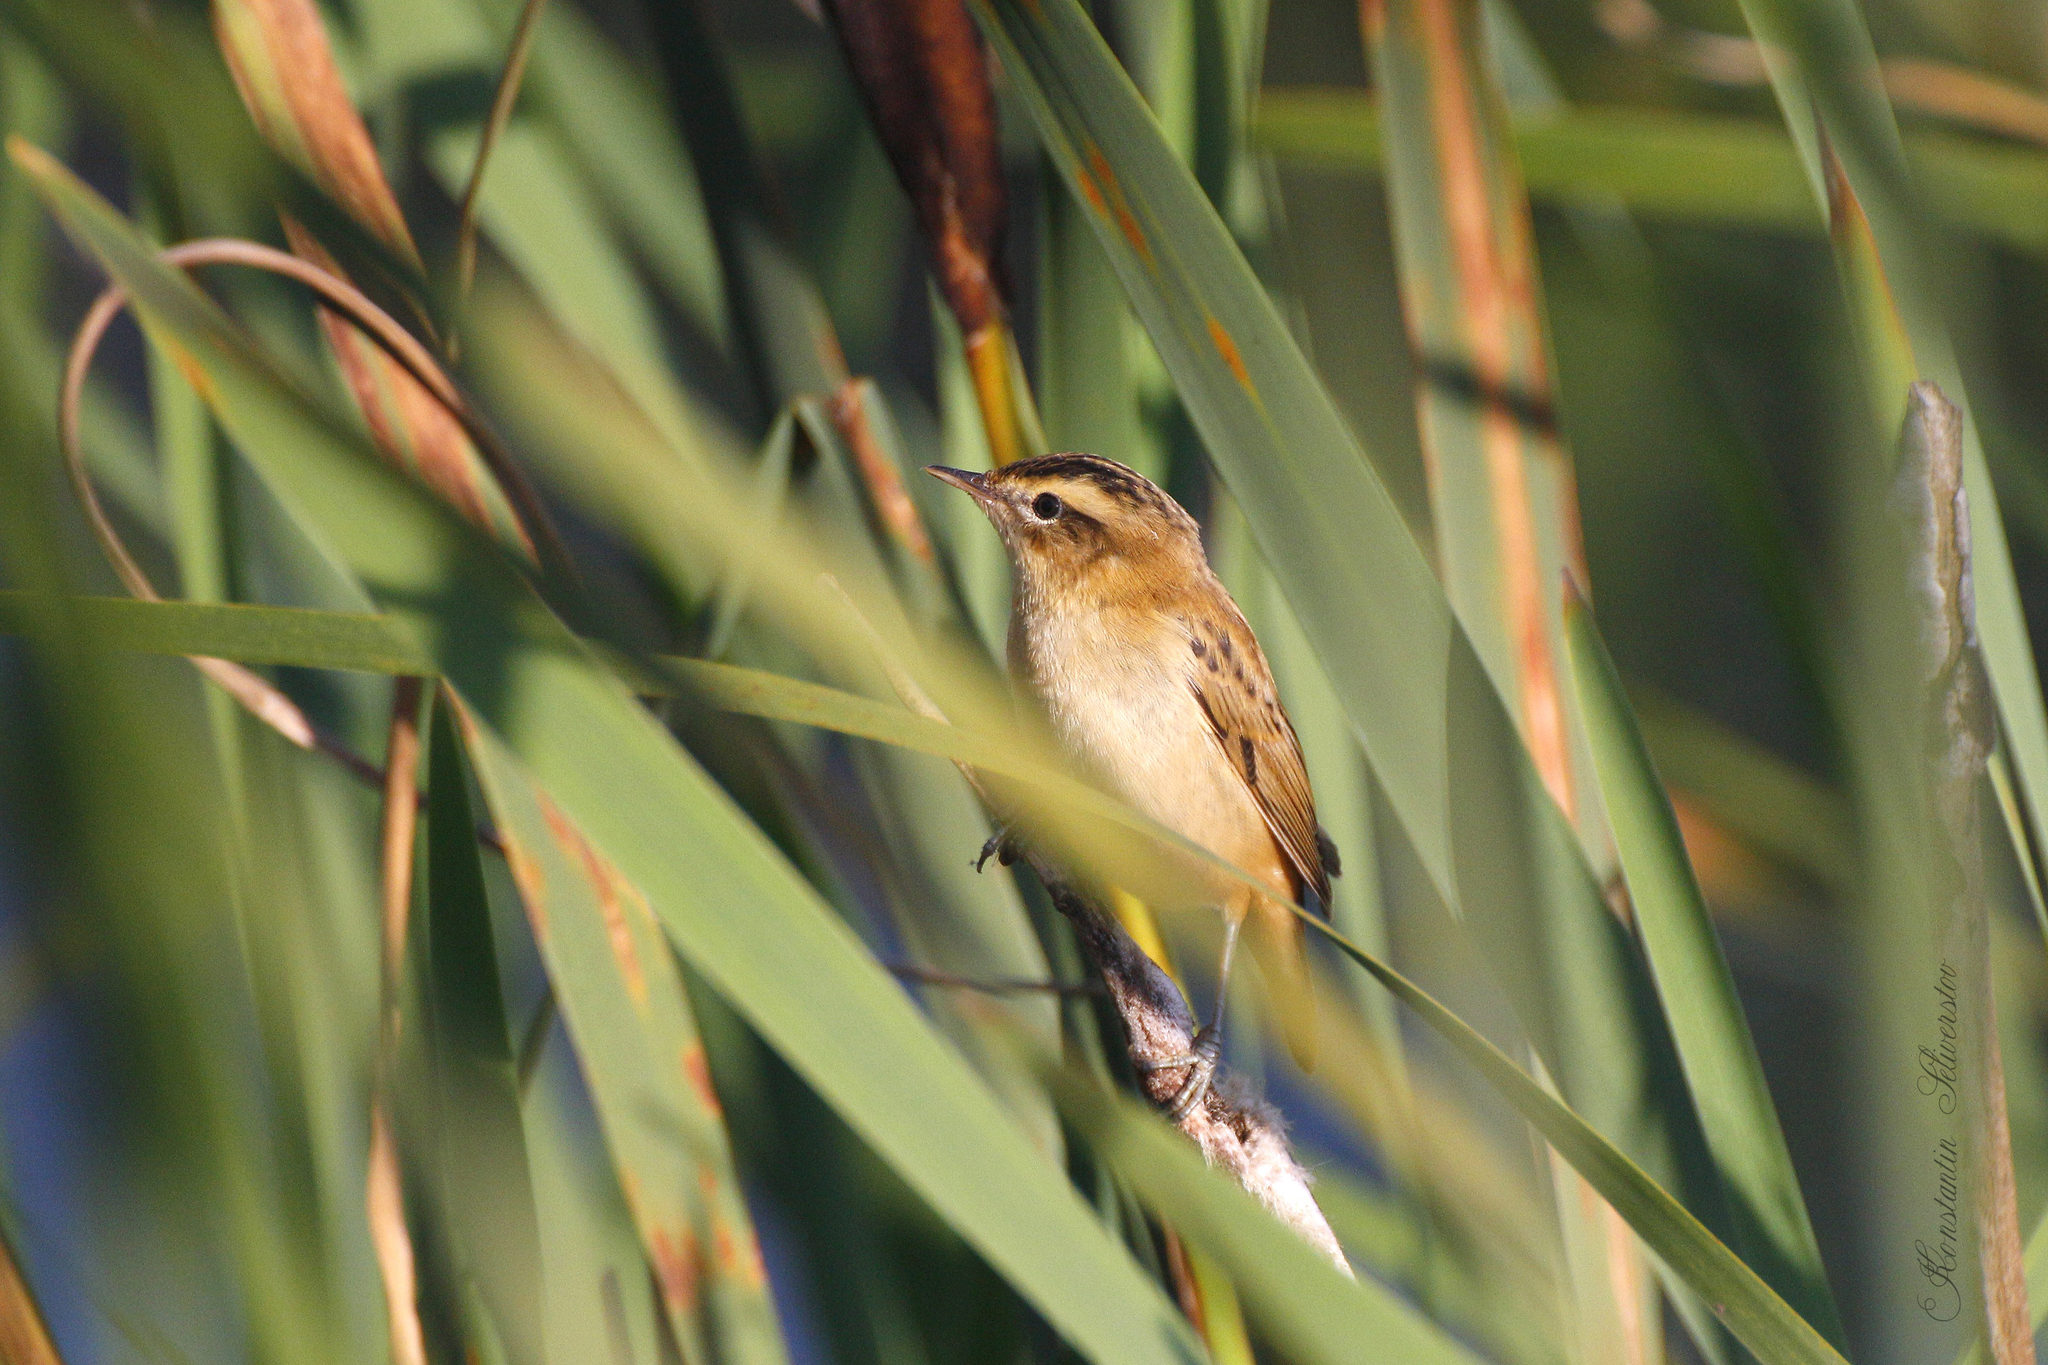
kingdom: Animalia
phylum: Chordata
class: Aves
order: Passeriformes
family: Acrocephalidae
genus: Acrocephalus
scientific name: Acrocephalus schoenobaenus
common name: Sedge warbler
